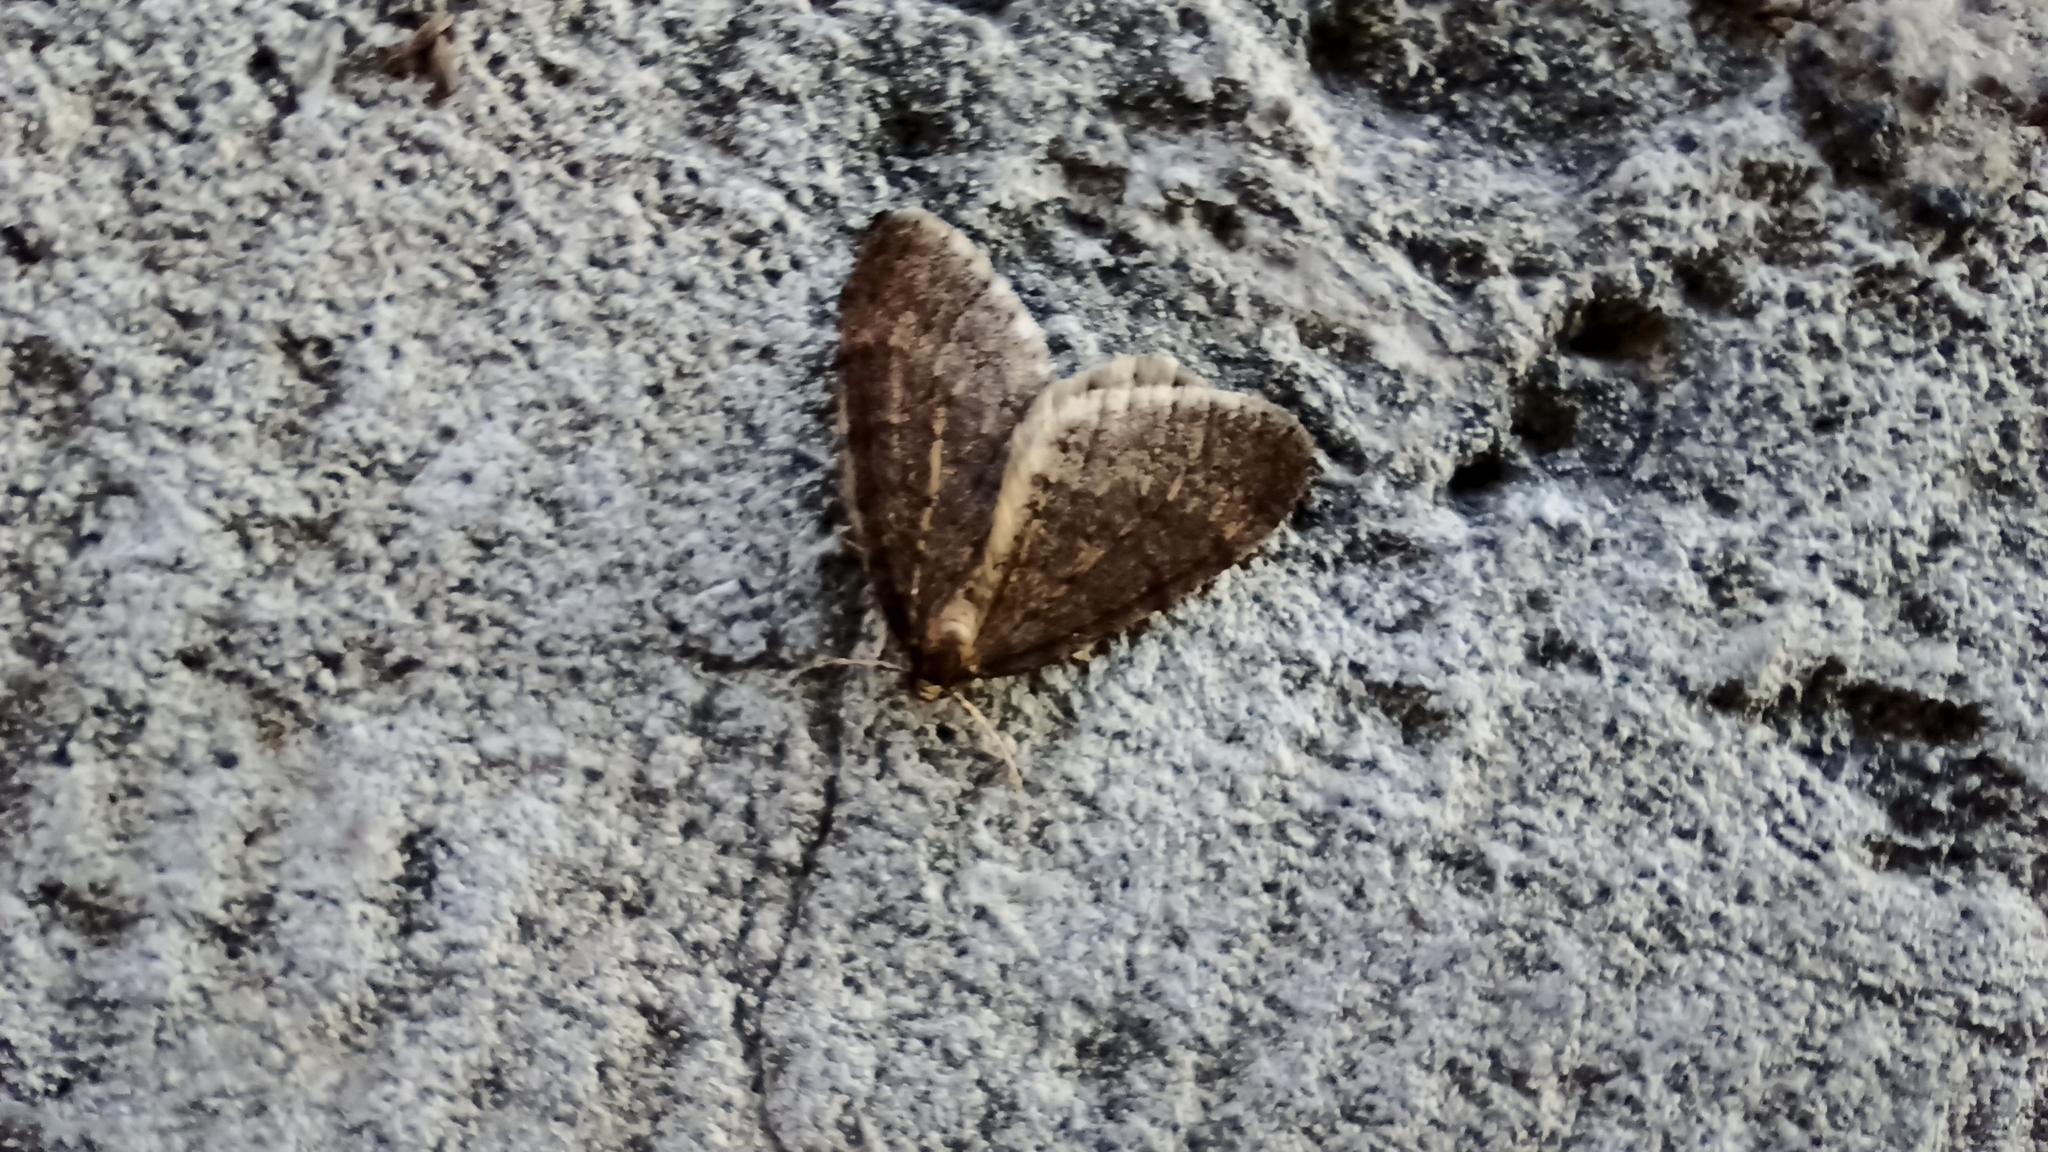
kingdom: Animalia
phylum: Arthropoda
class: Insecta
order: Lepidoptera
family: Geometridae
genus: Operophtera
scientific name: Operophtera brumata
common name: Winter moth
